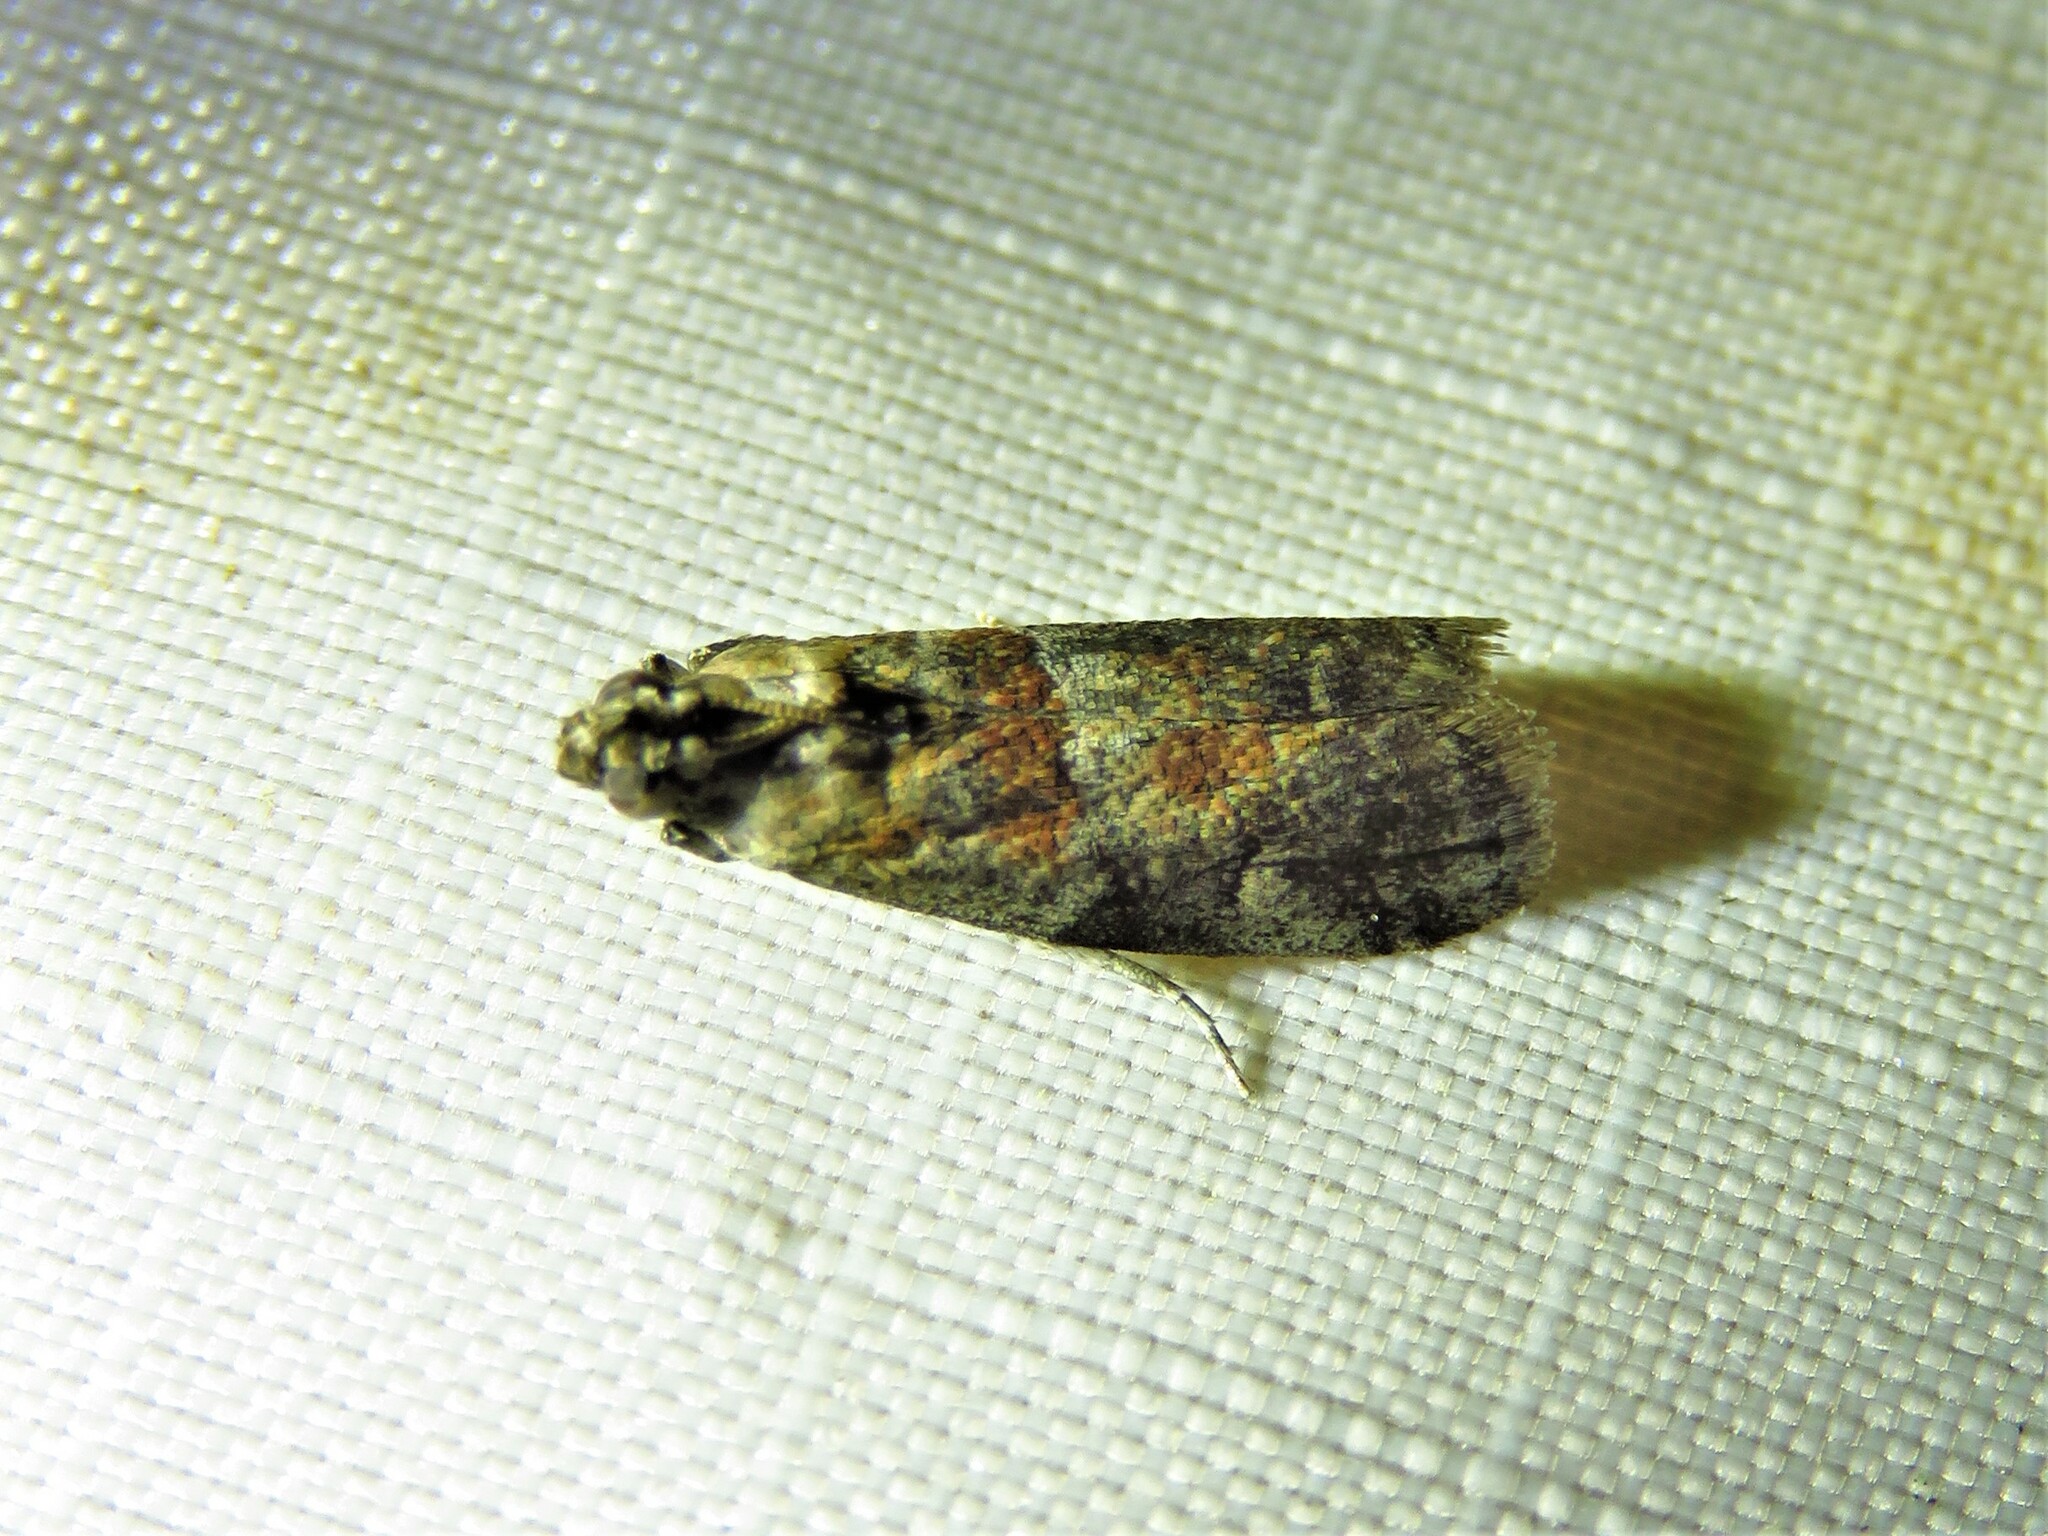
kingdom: Animalia
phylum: Arthropoda
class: Insecta
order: Lepidoptera
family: Pyralidae
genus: Salebriaria
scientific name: Salebriaria pumilella
